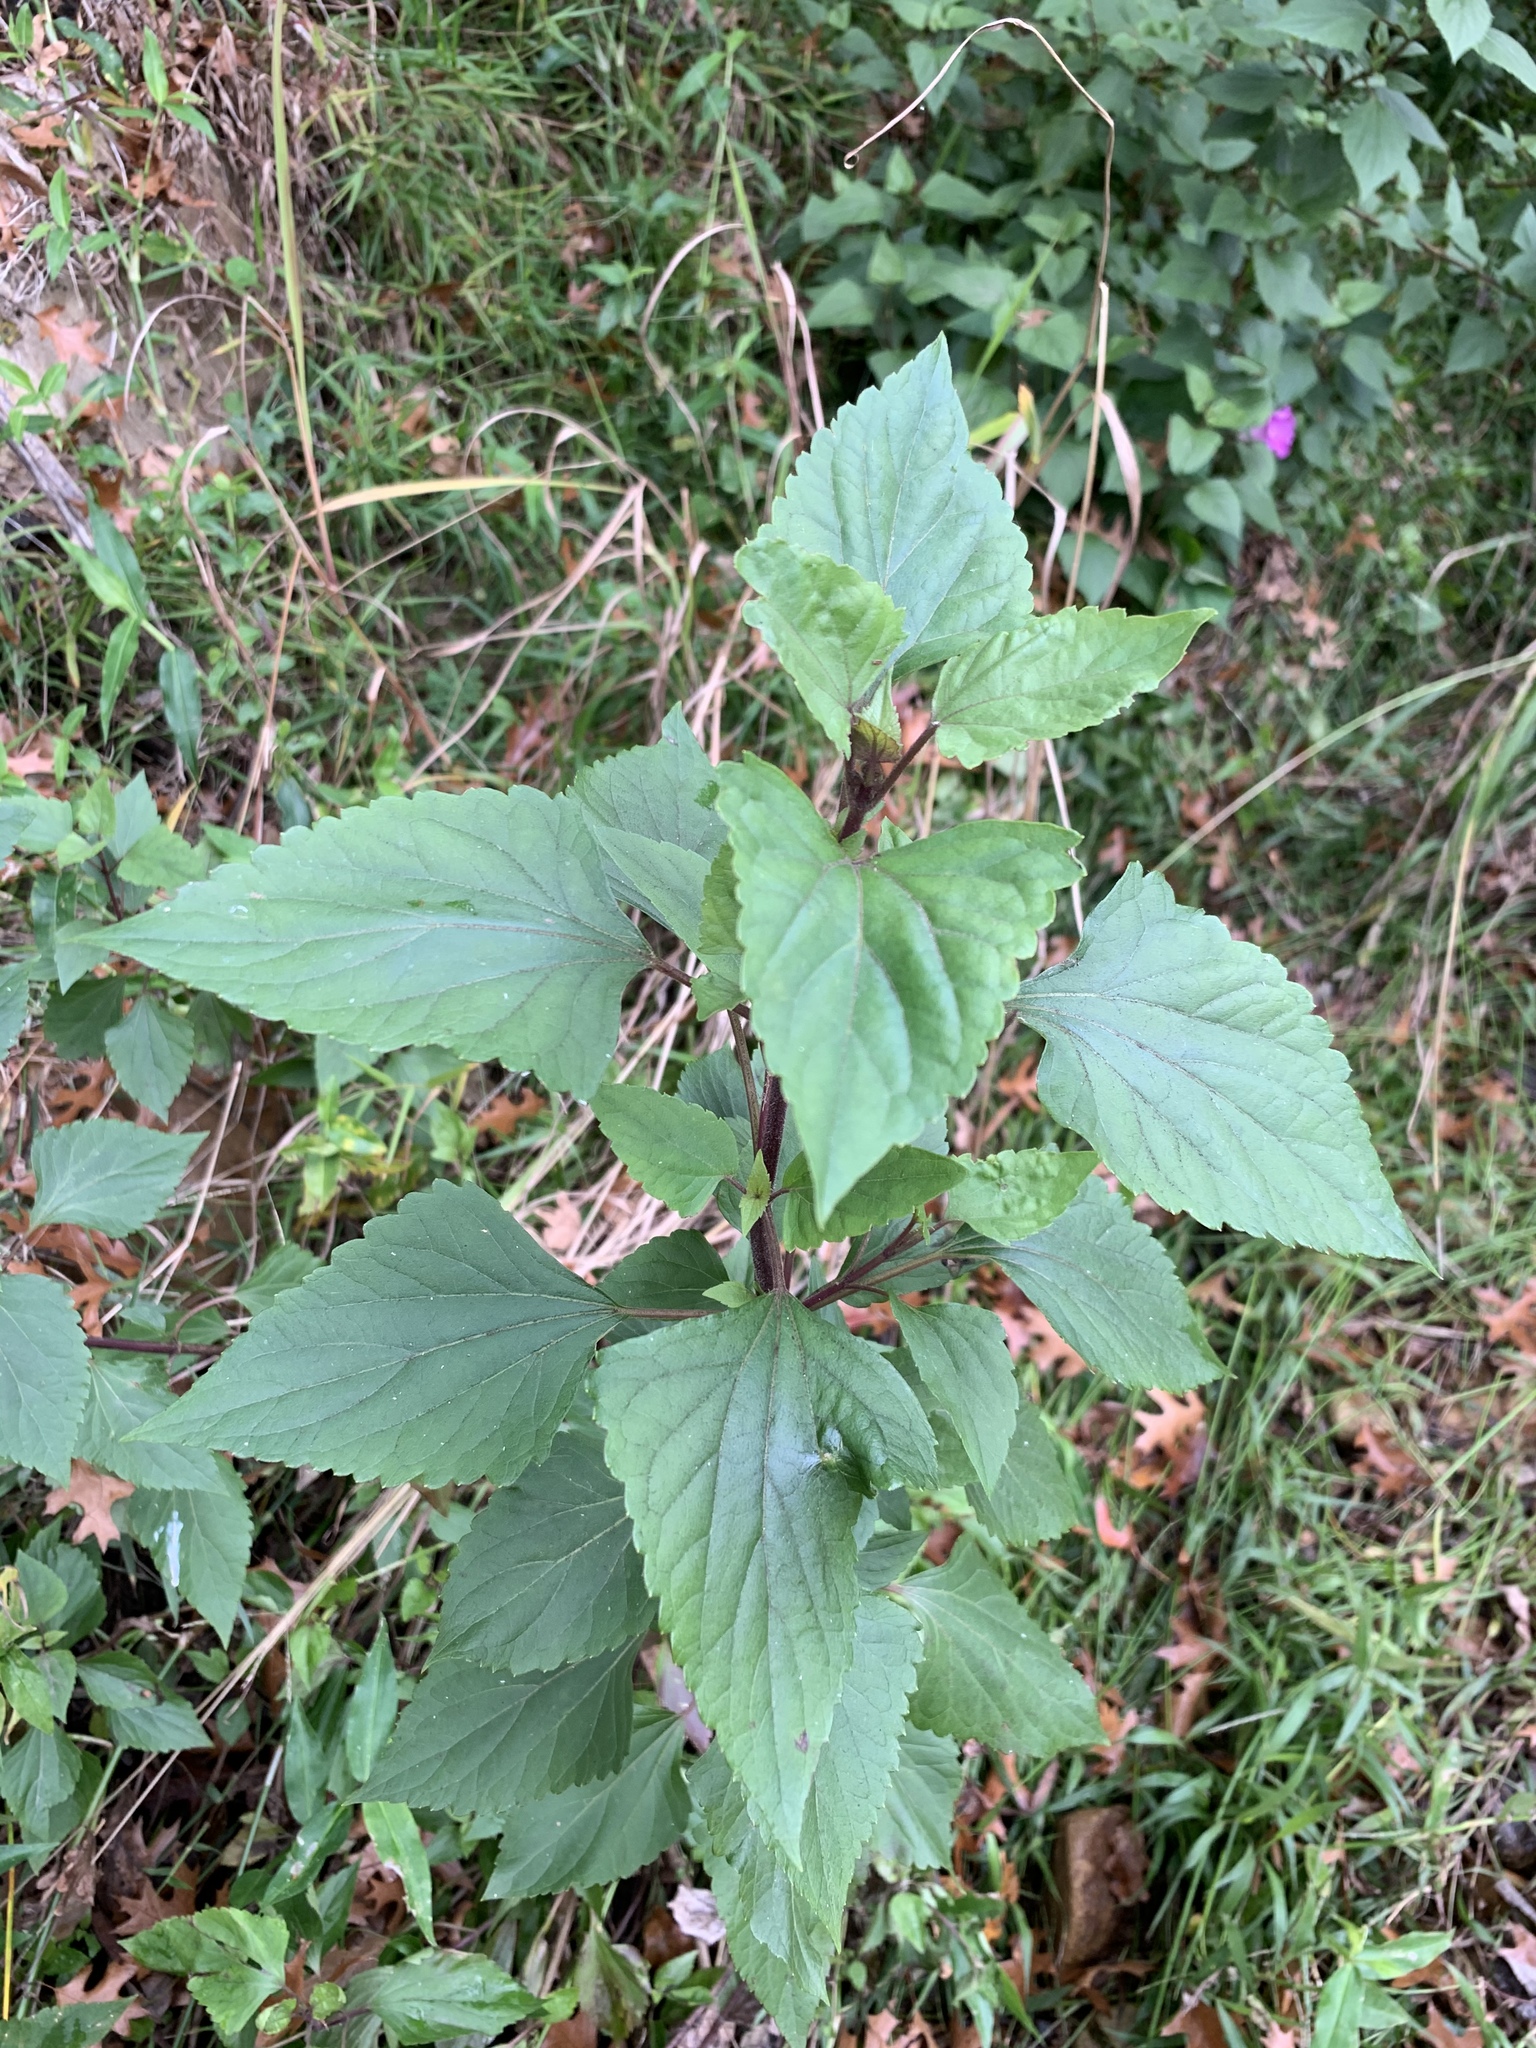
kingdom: Plantae
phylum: Tracheophyta
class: Magnoliopsida
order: Asterales
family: Asteraceae
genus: Ageratina
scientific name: Ageratina adenophora
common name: Sticky snakeroot
